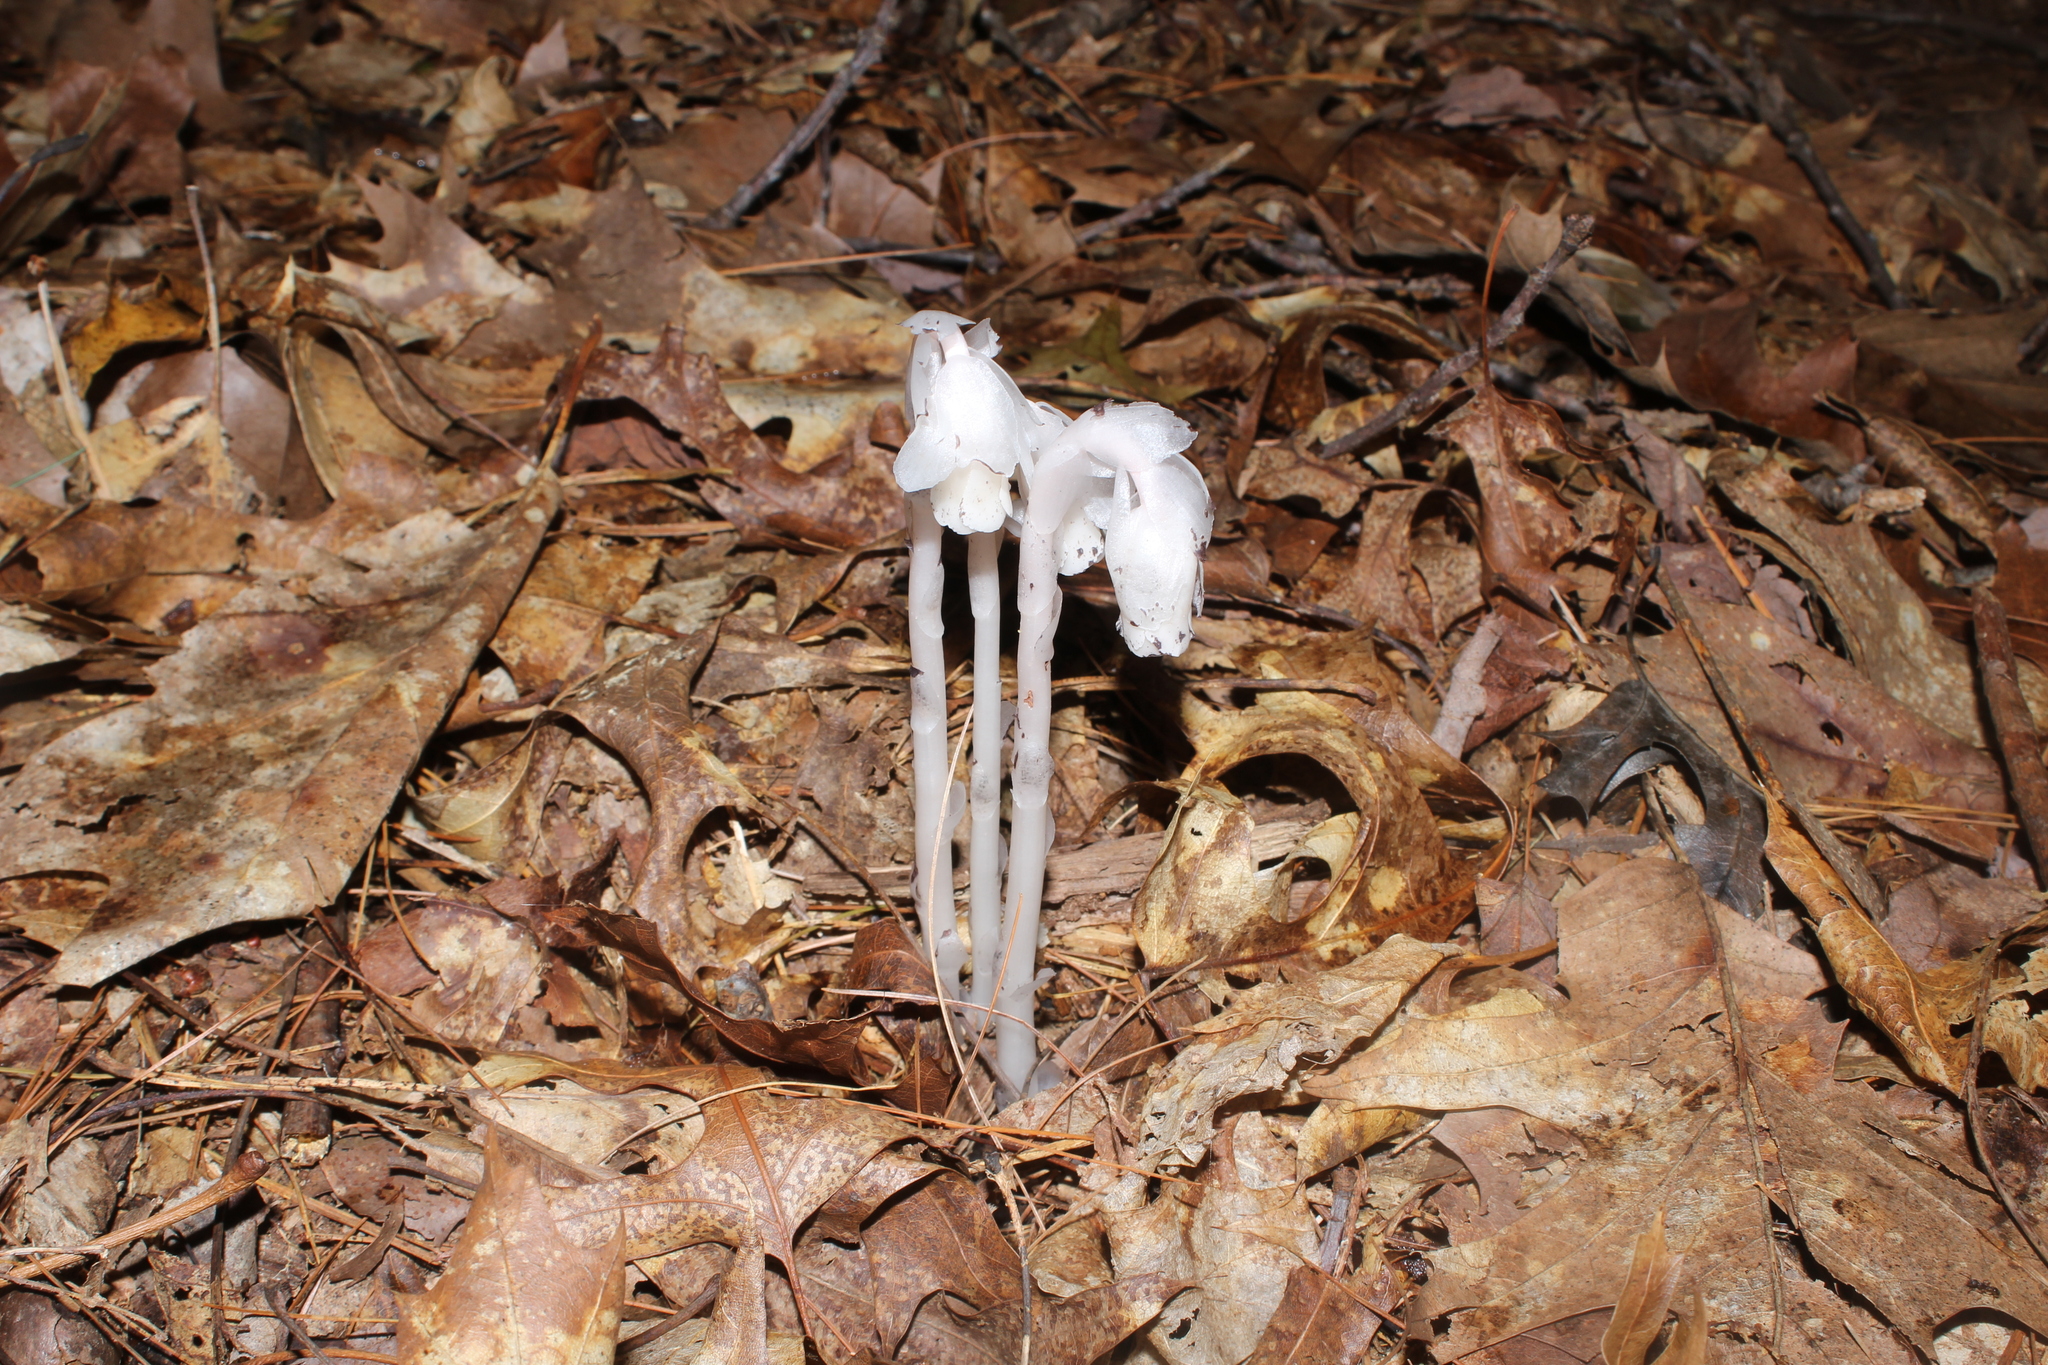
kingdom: Plantae
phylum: Tracheophyta
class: Magnoliopsida
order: Ericales
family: Ericaceae
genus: Monotropa
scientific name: Monotropa uniflora
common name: Convulsion root
